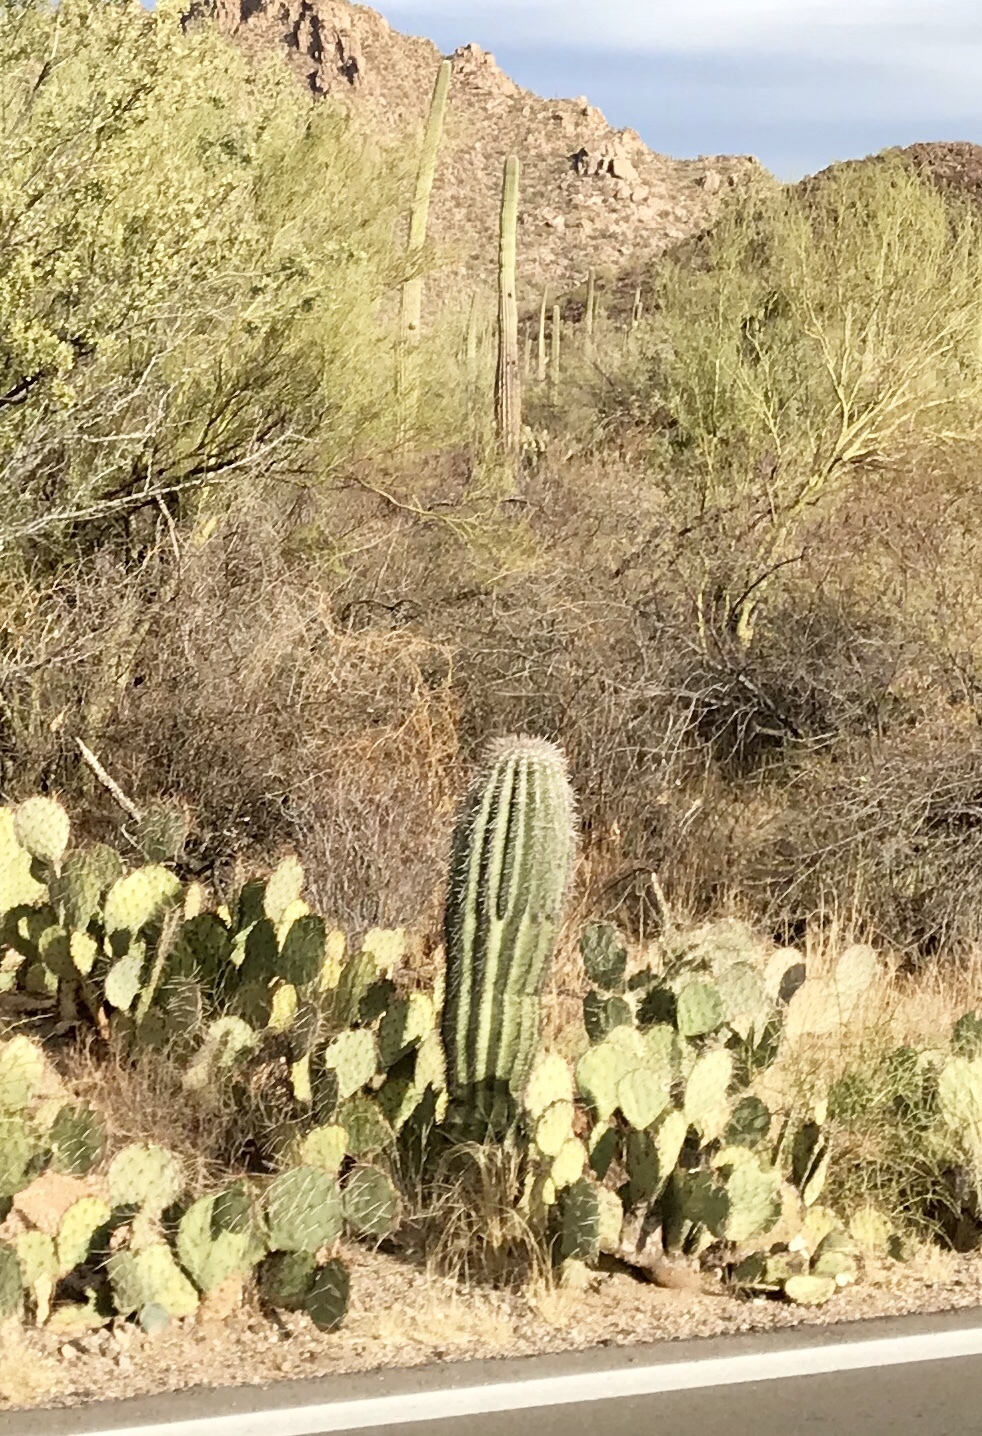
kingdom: Plantae
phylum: Tracheophyta
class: Magnoliopsida
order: Caryophyllales
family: Cactaceae
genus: Carnegiea
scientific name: Carnegiea gigantea
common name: Saguaro
